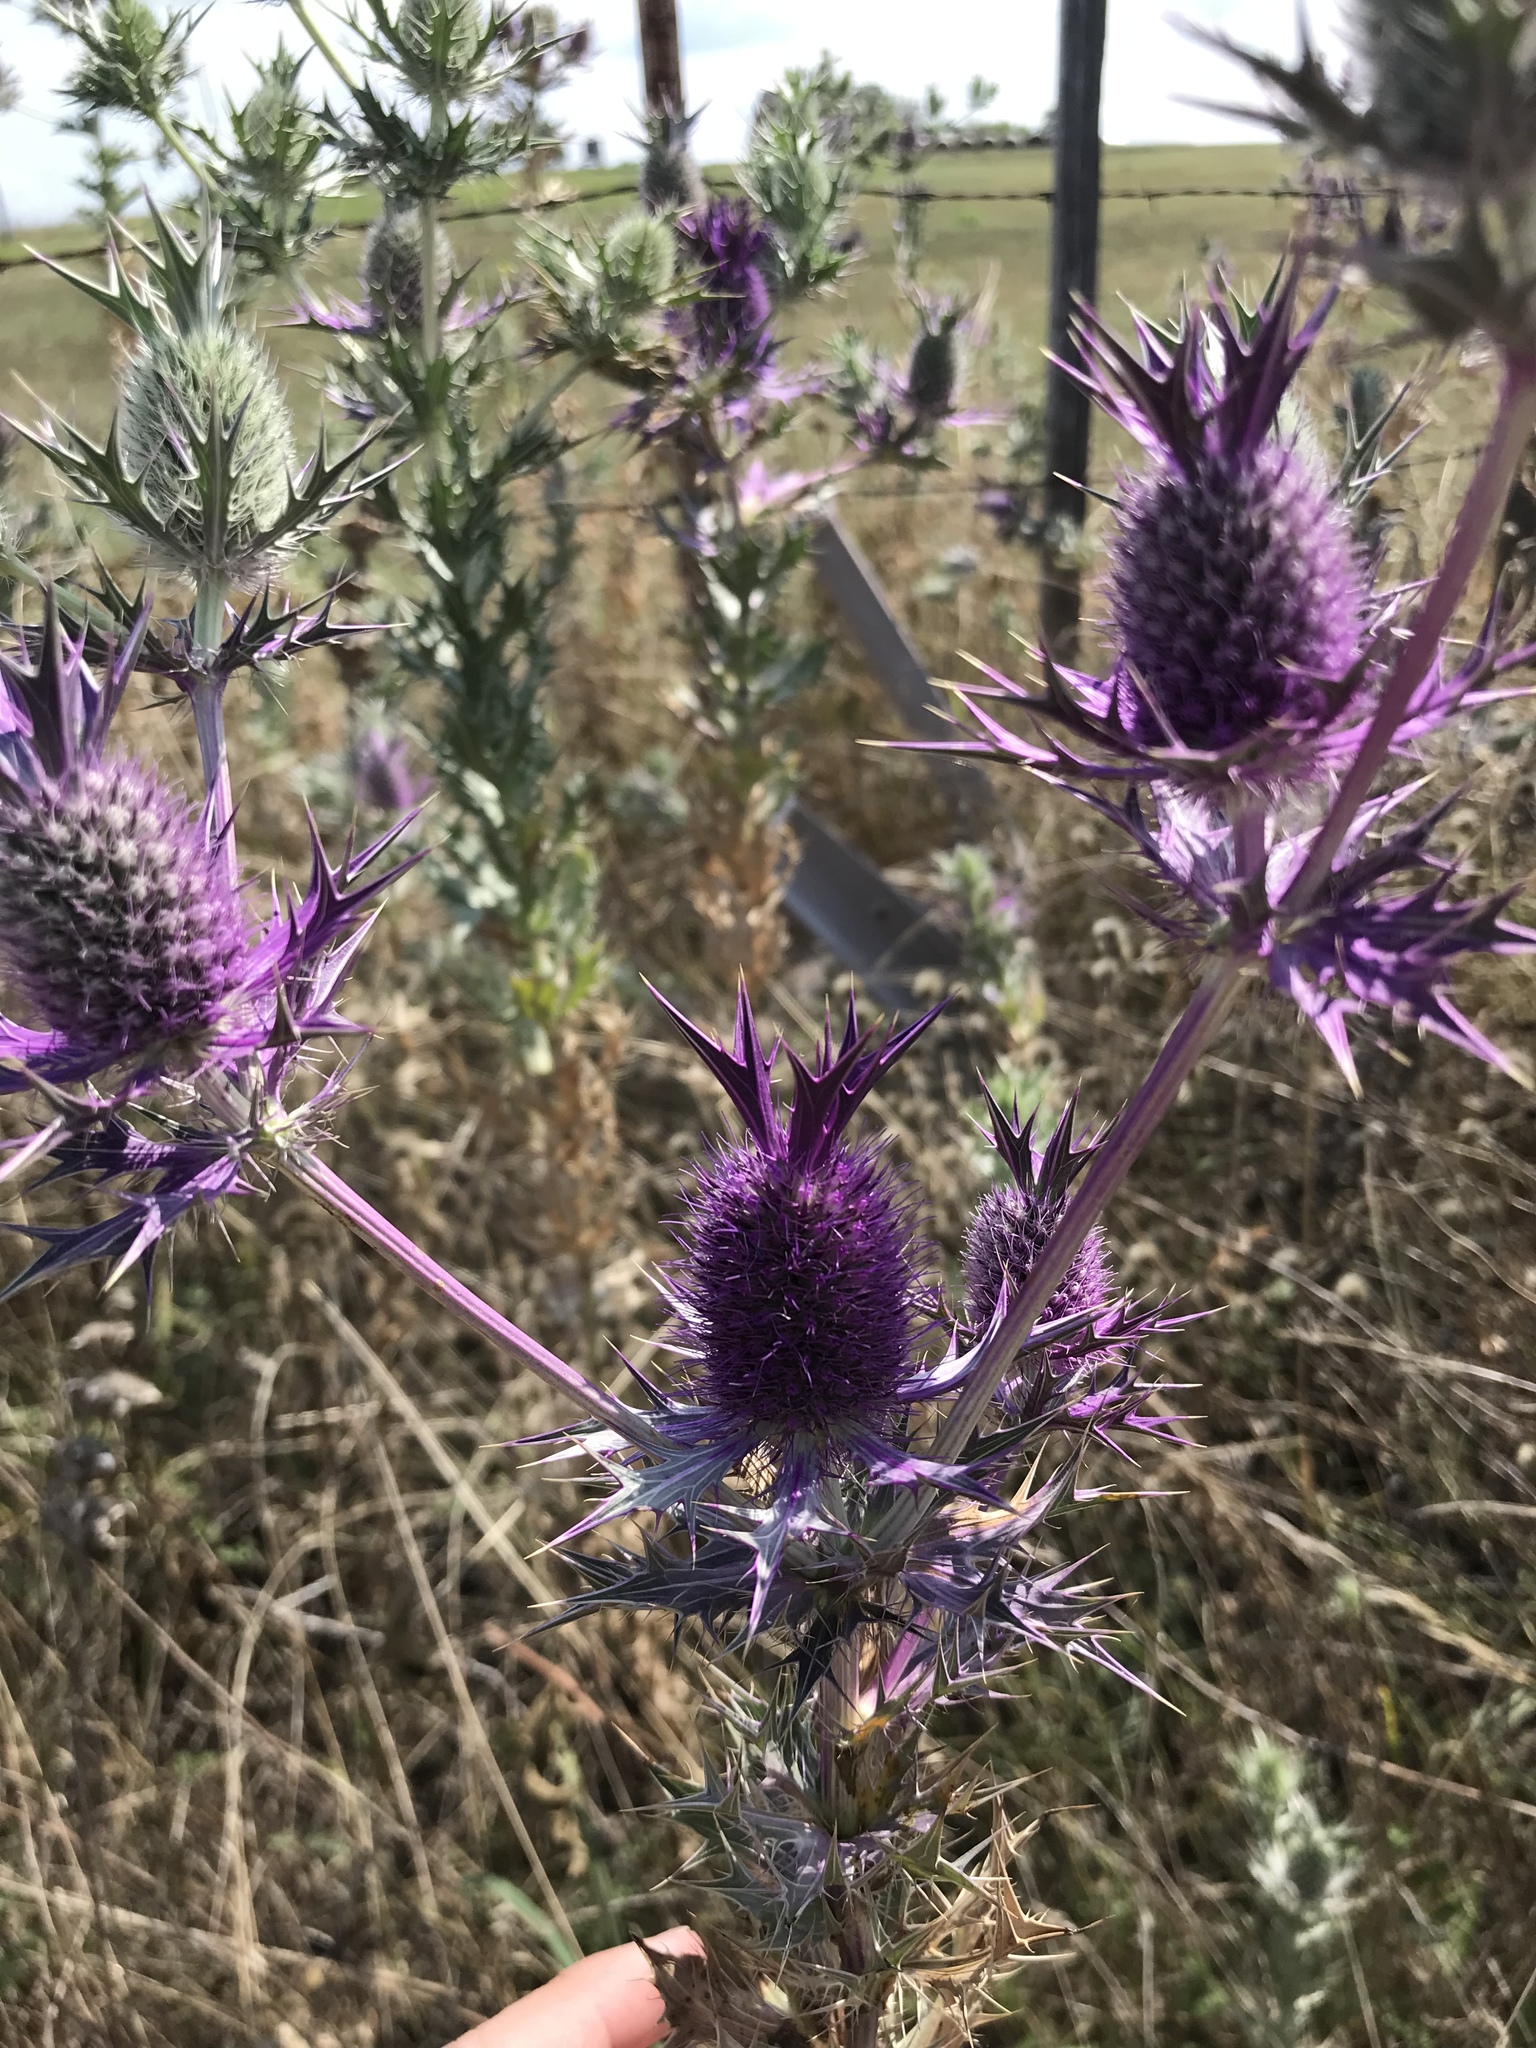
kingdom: Plantae
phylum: Tracheophyta
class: Magnoliopsida
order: Apiales
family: Apiaceae
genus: Eryngium
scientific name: Eryngium leavenworthii
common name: Leavenworth's eryngo
